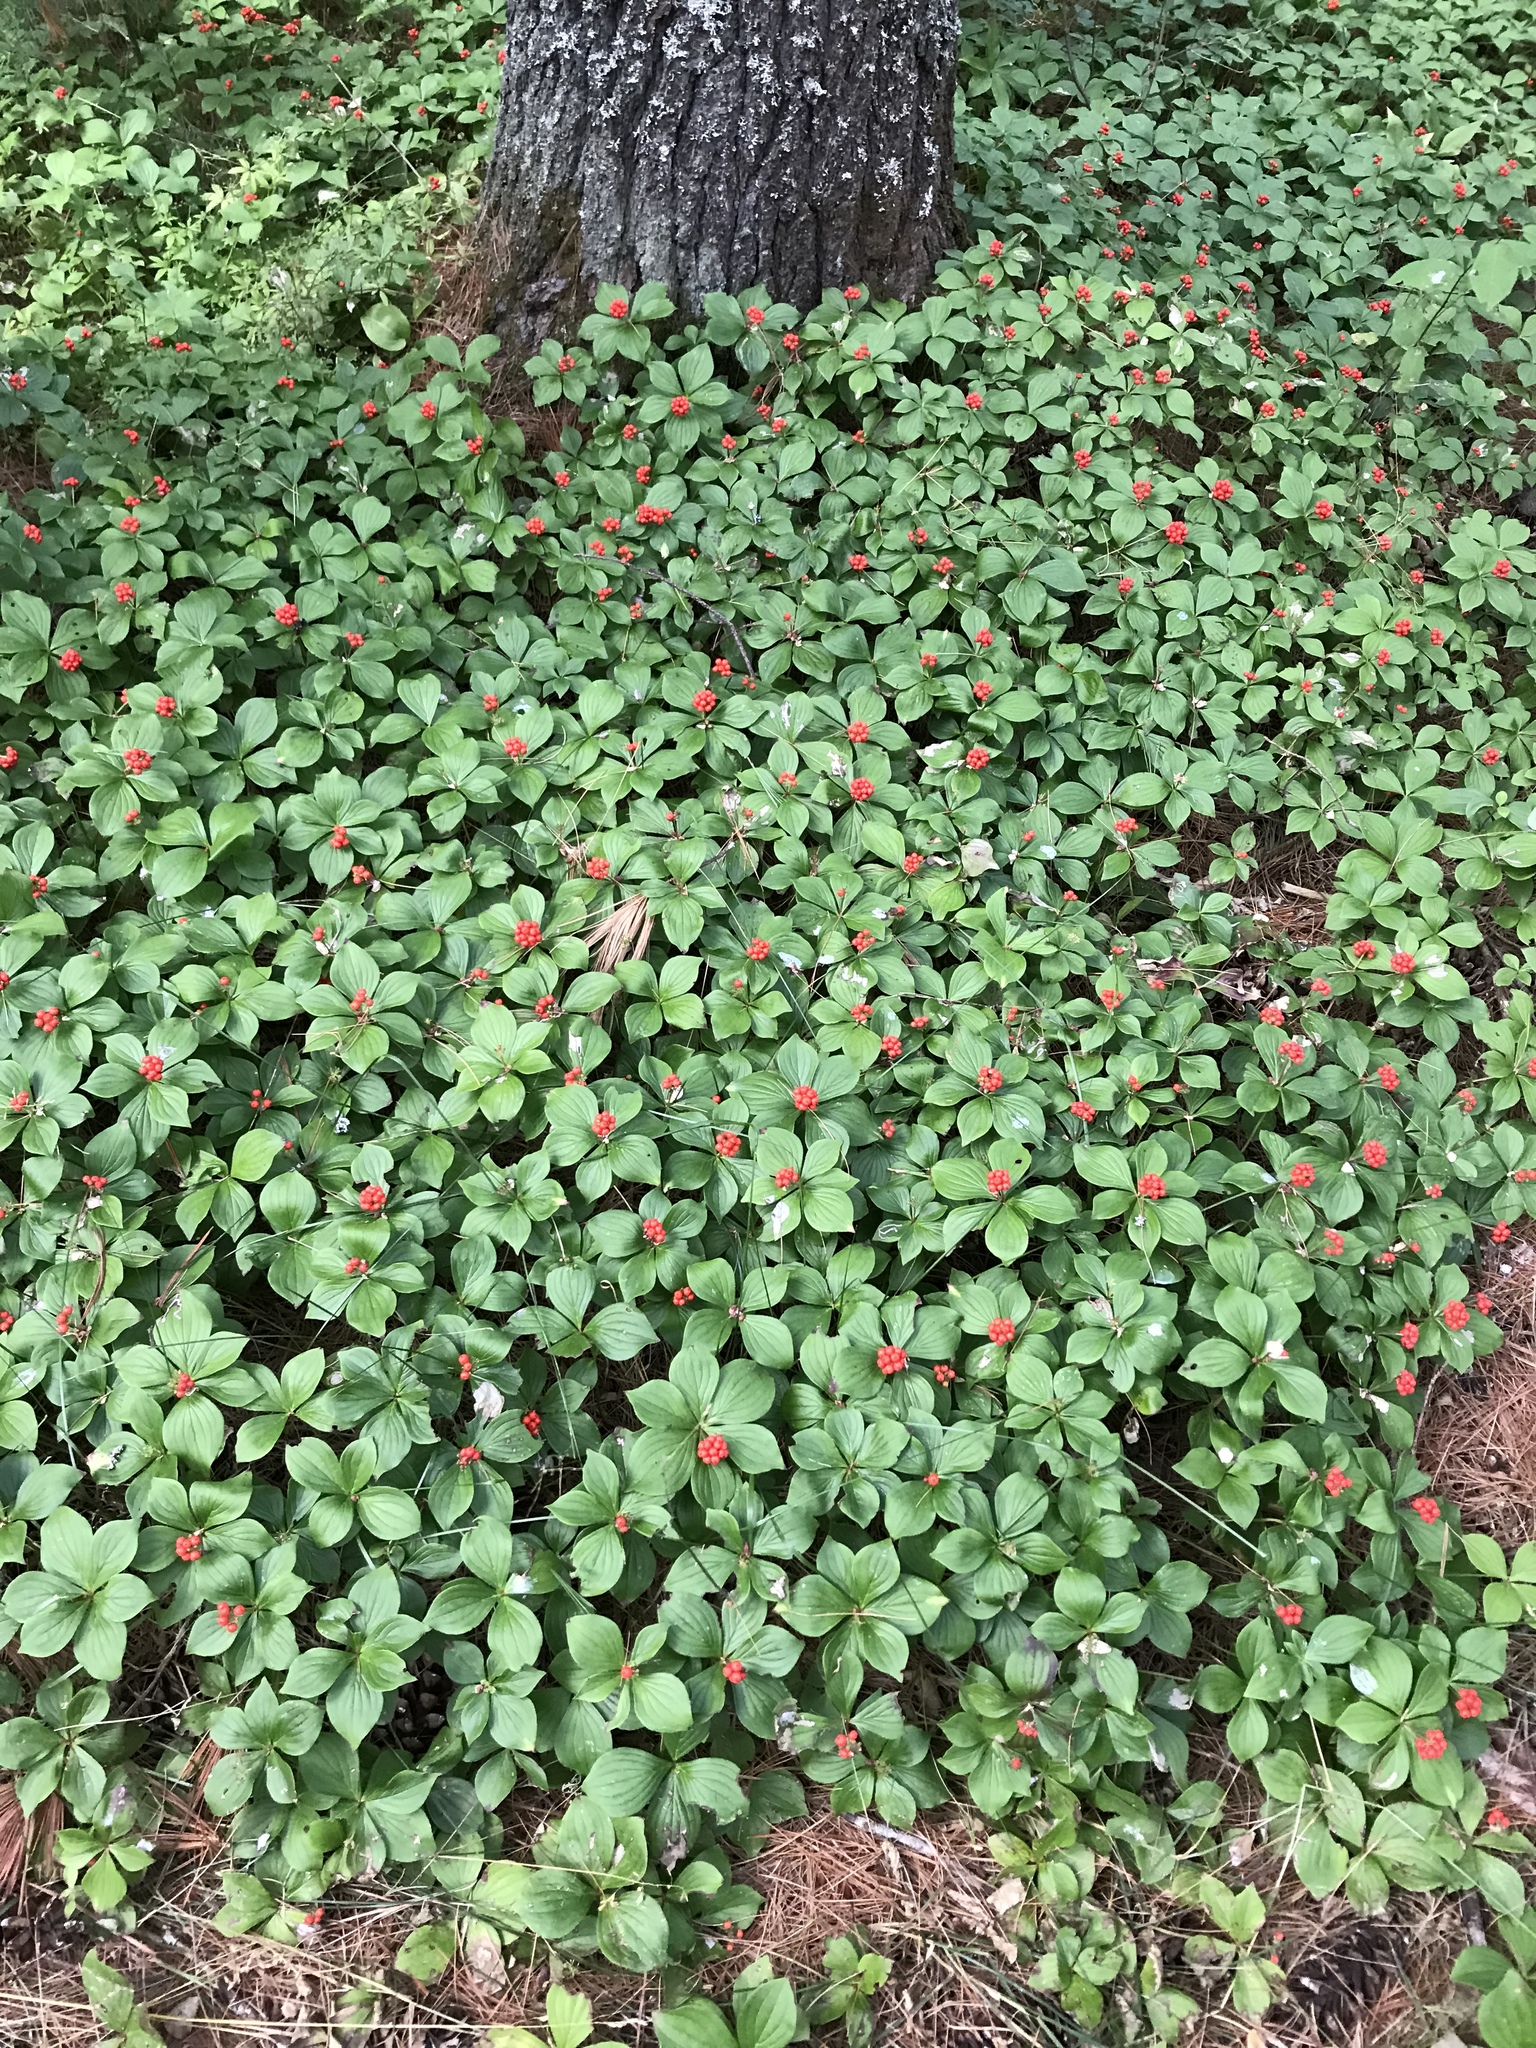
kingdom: Plantae
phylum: Tracheophyta
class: Magnoliopsida
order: Cornales
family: Cornaceae
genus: Cornus
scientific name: Cornus canadensis
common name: Creeping dogwood
